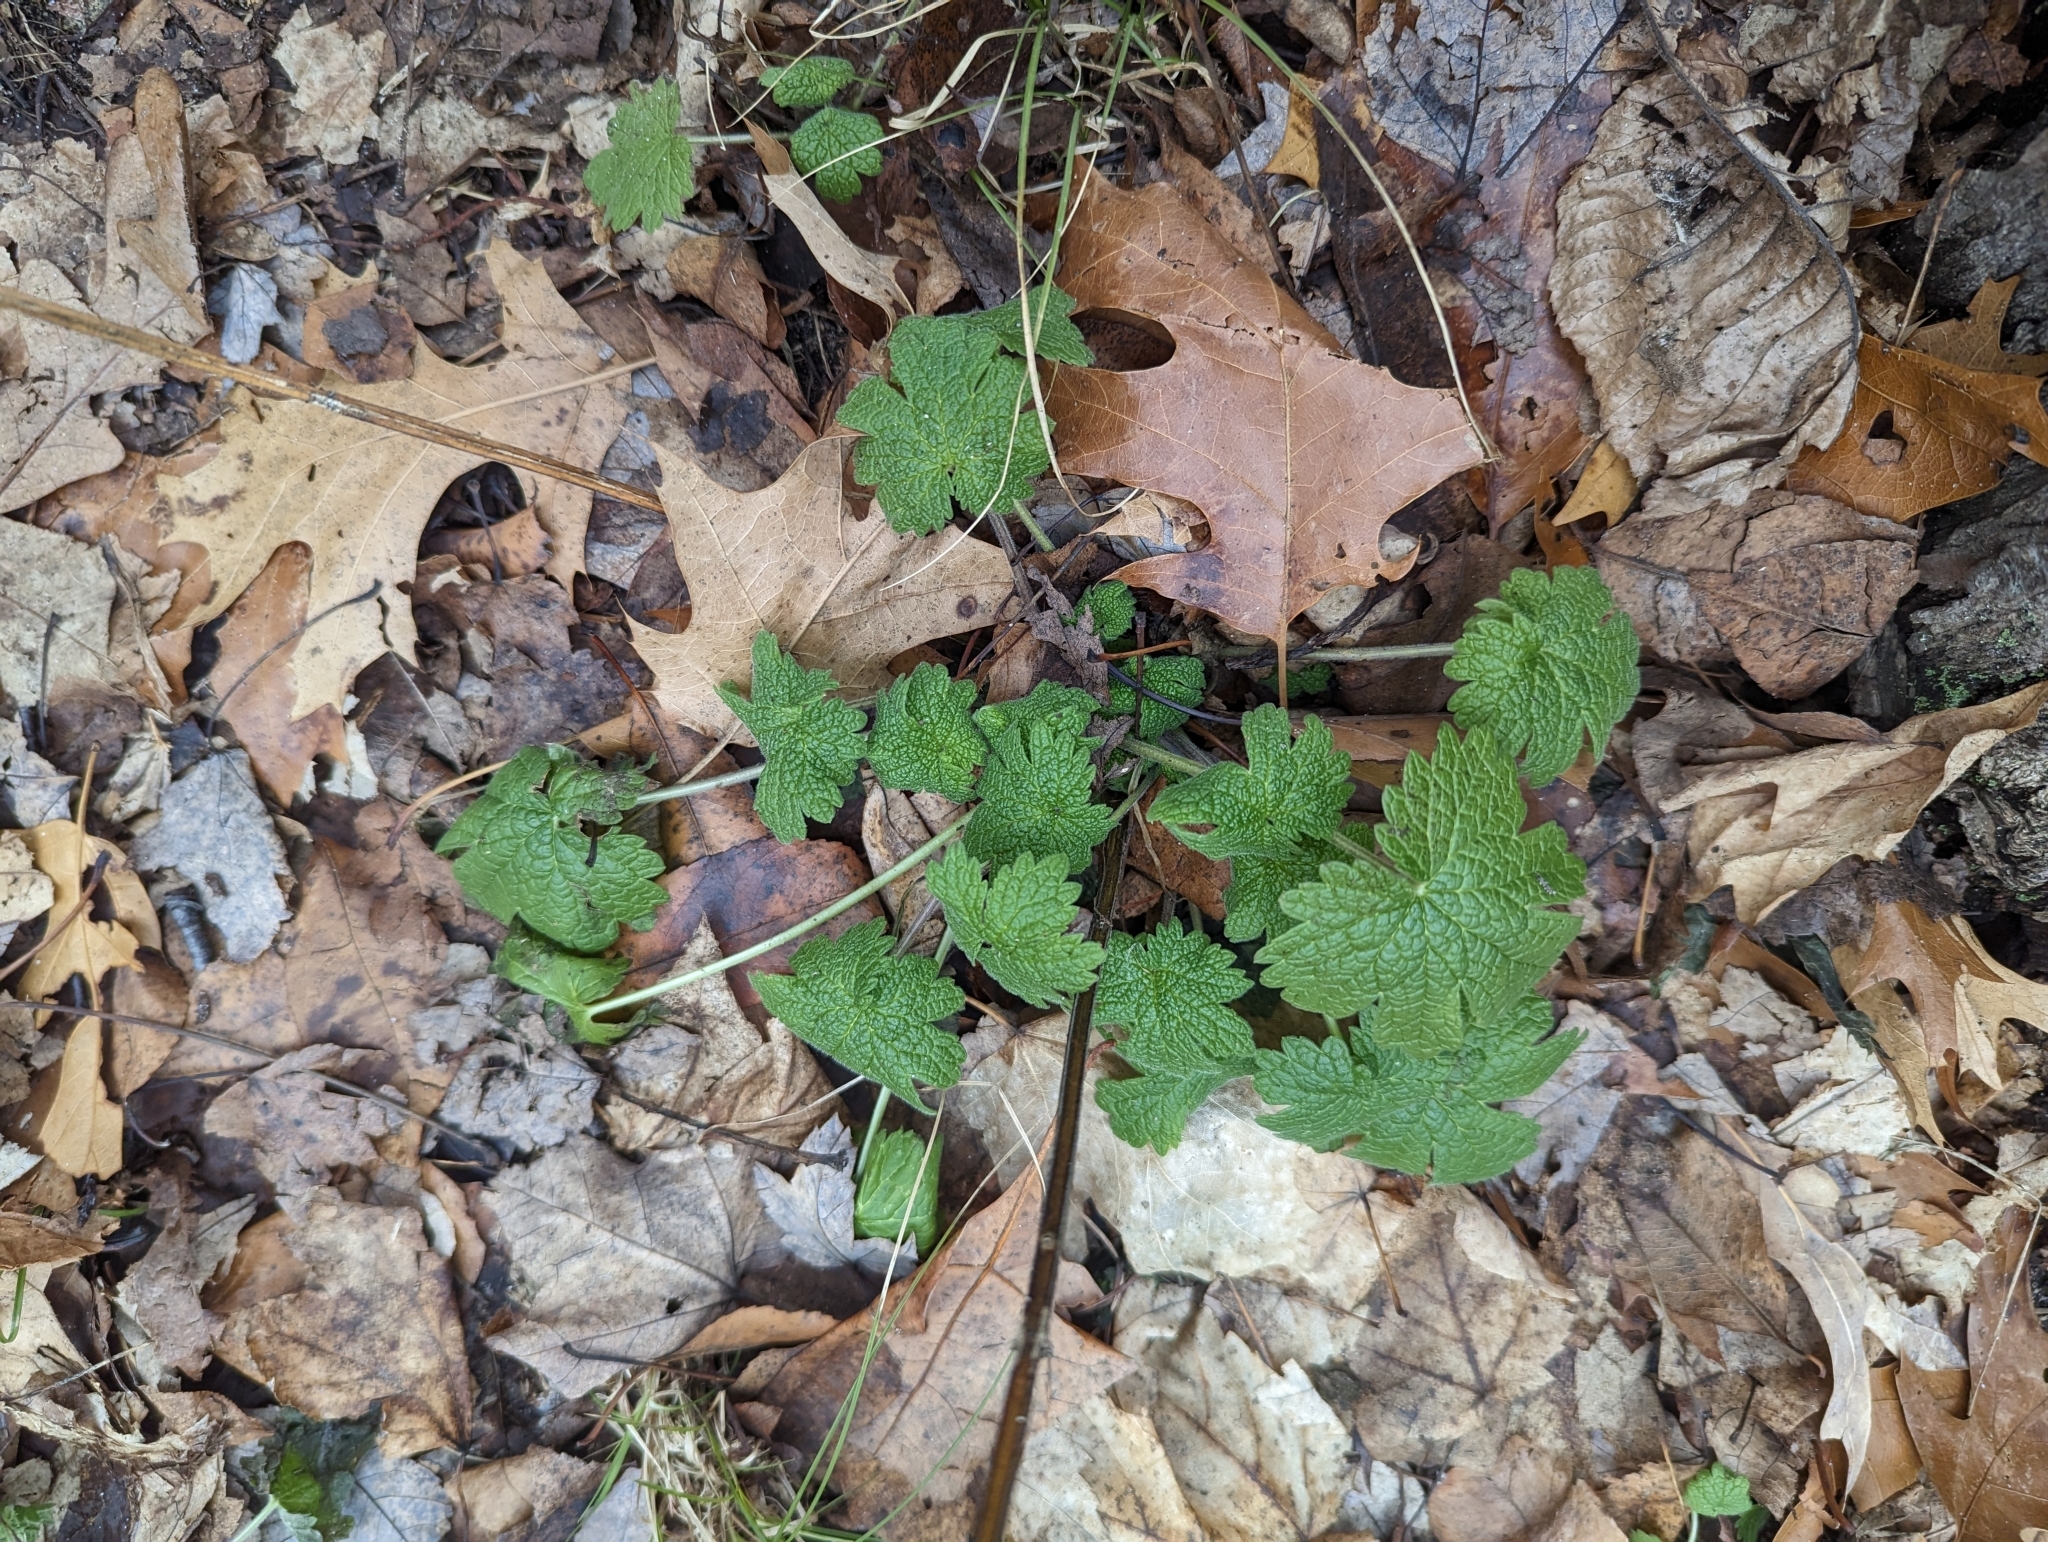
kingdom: Plantae
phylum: Tracheophyta
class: Magnoliopsida
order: Lamiales
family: Lamiaceae
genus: Leonurus
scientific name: Leonurus cardiaca
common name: Motherwort
